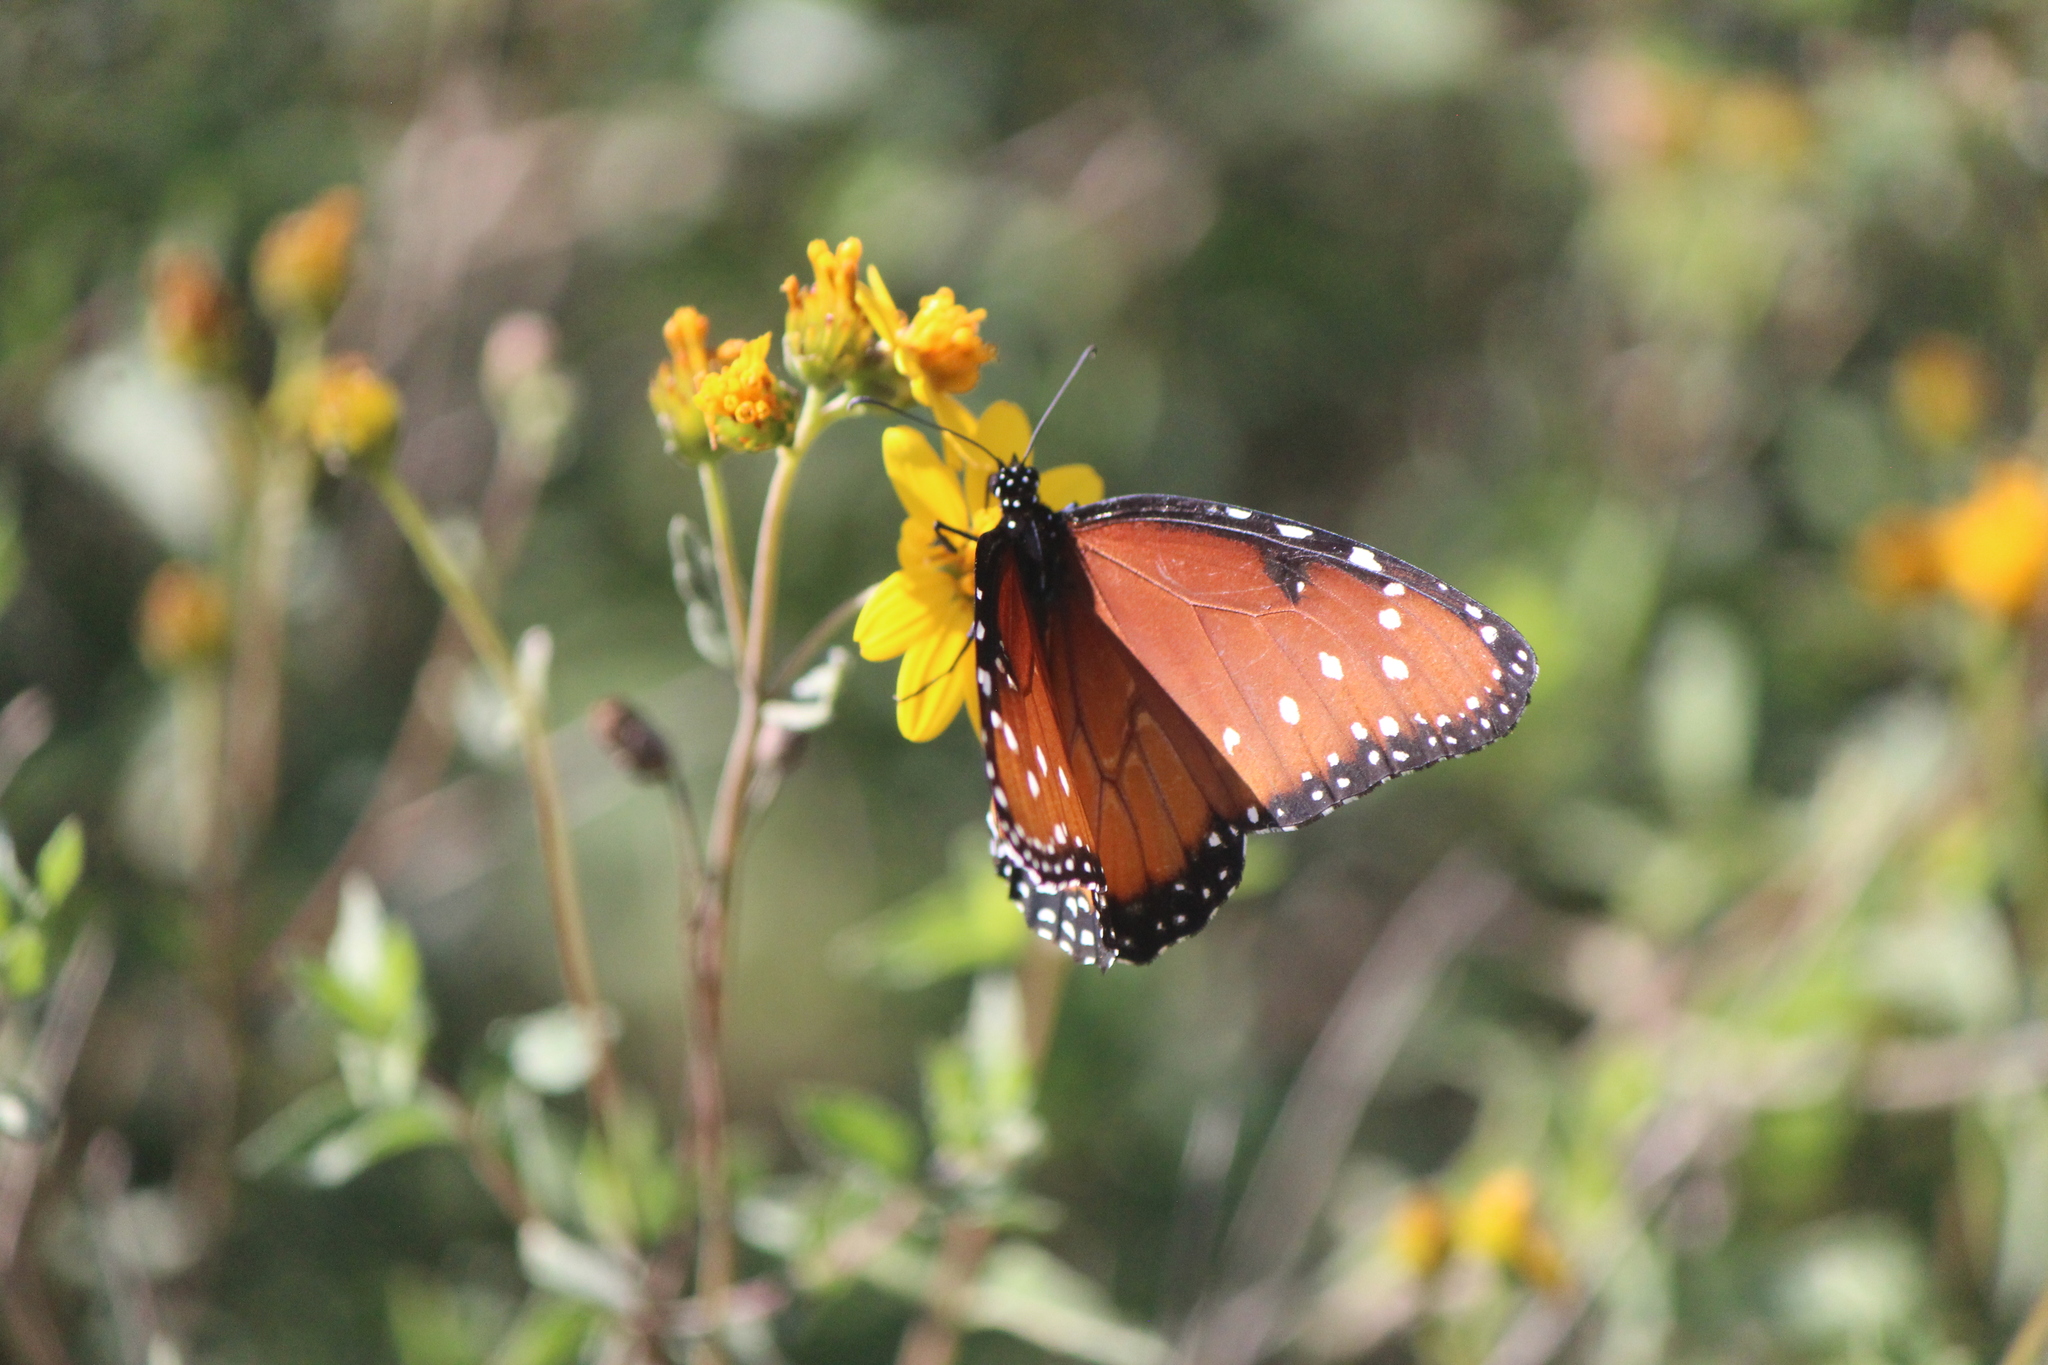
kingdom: Animalia
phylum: Arthropoda
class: Insecta
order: Lepidoptera
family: Nymphalidae
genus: Danaus
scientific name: Danaus gilippus
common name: Queen
